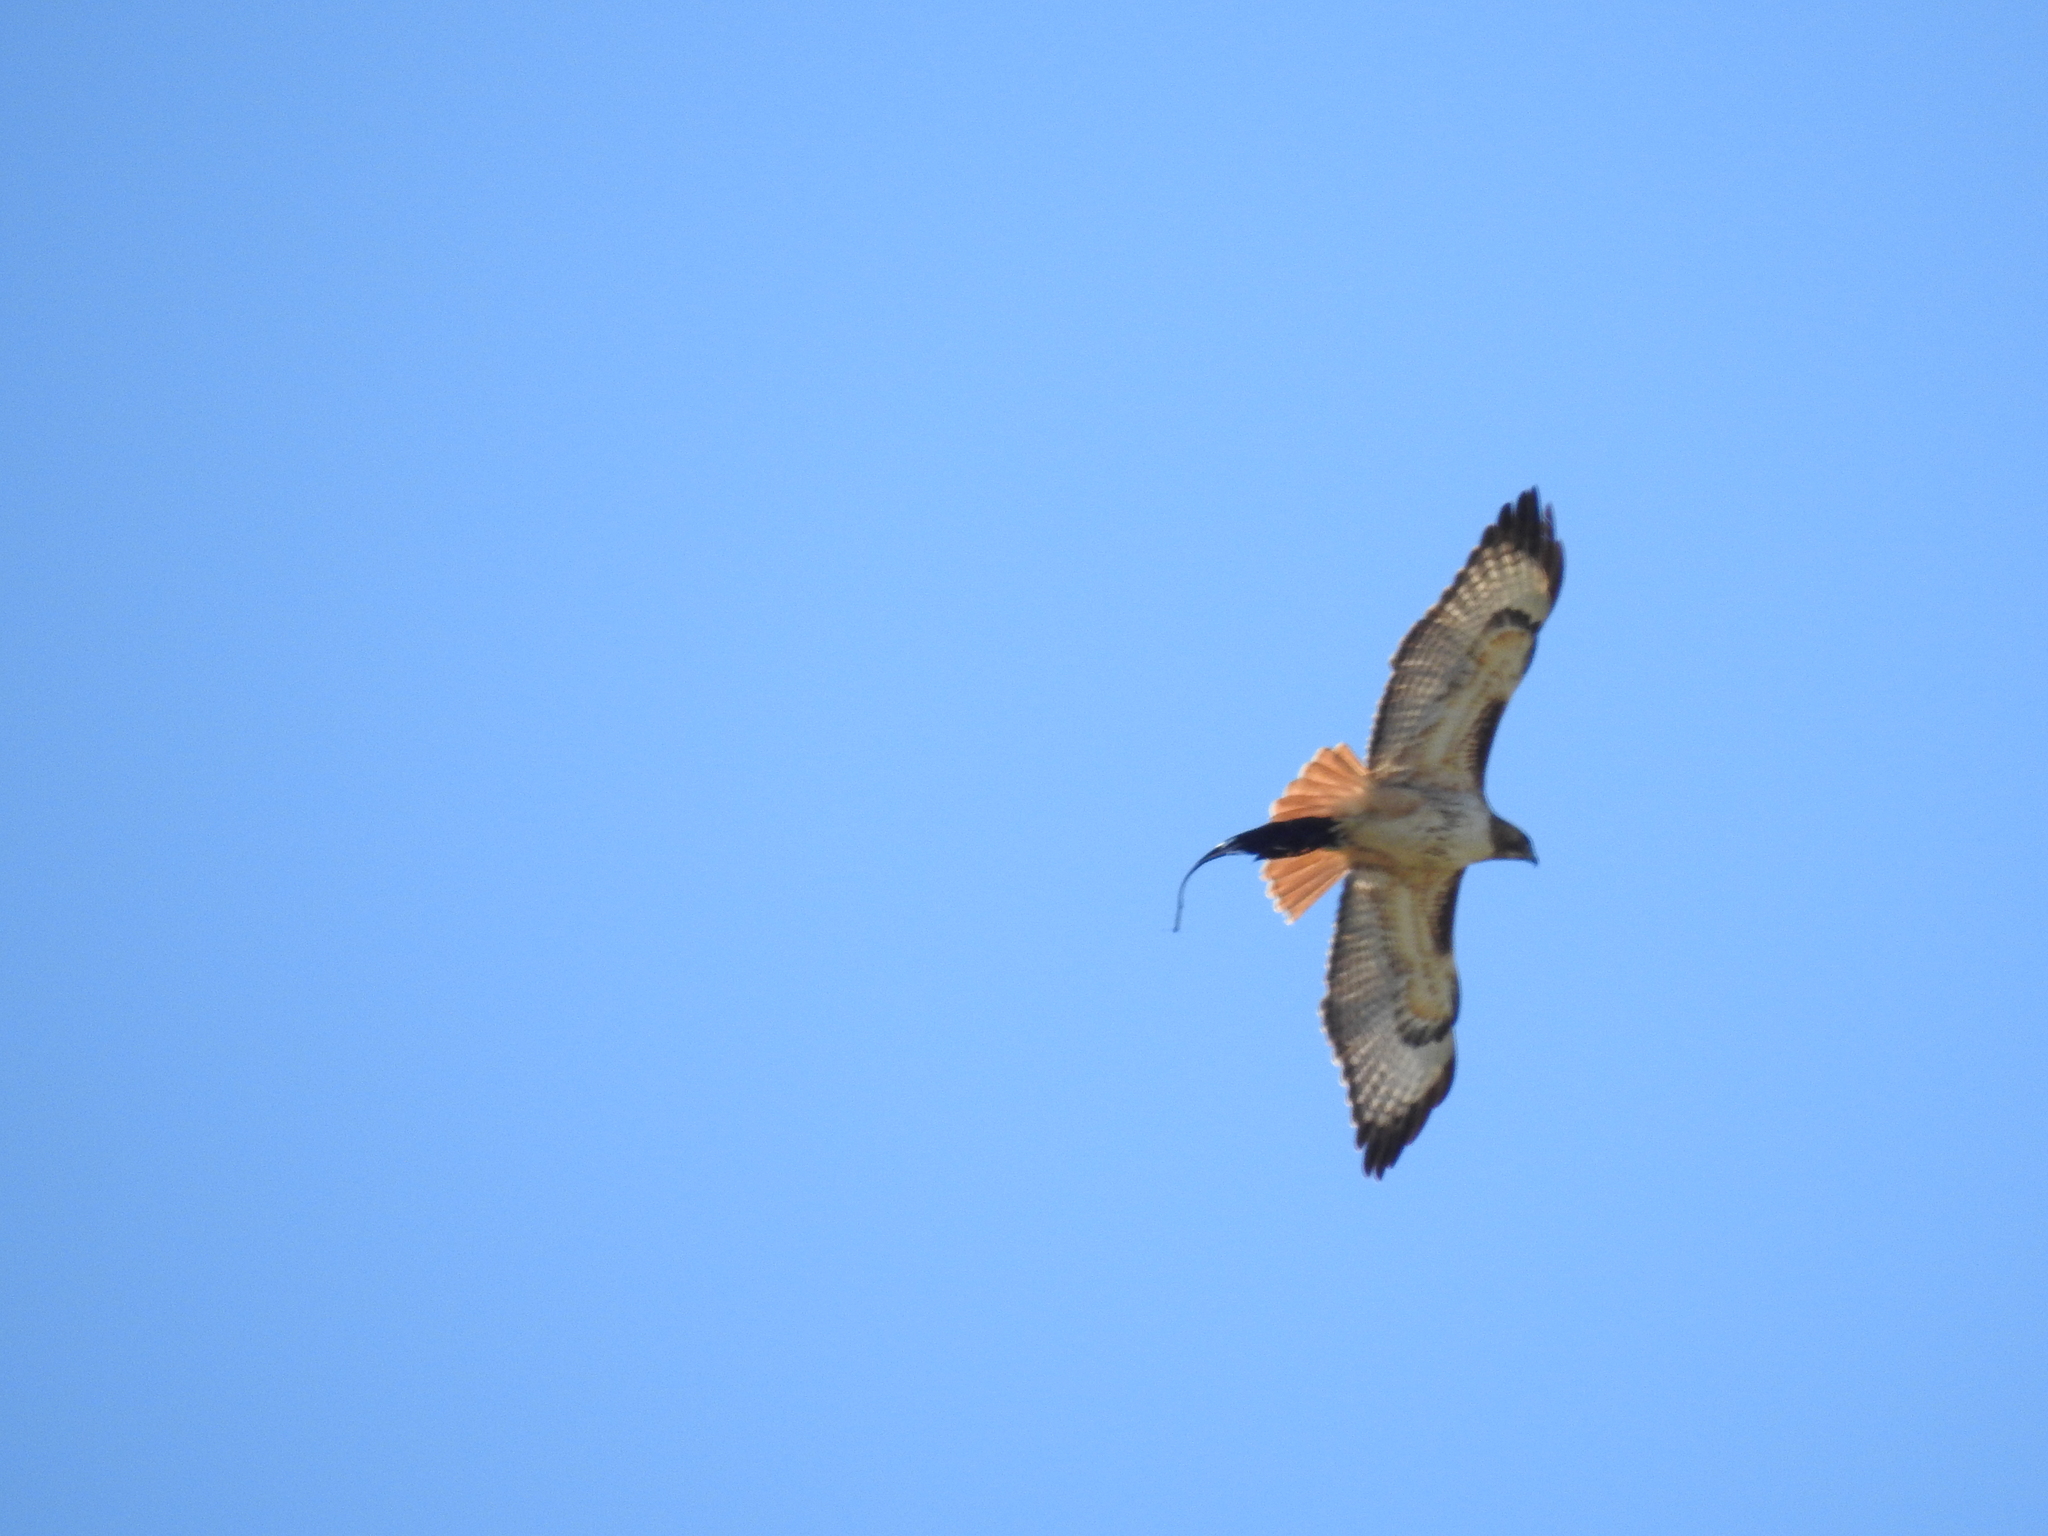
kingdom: Animalia
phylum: Chordata
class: Aves
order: Accipitriformes
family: Accipitridae
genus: Buteo
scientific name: Buteo jamaicensis
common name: Red-tailed hawk
